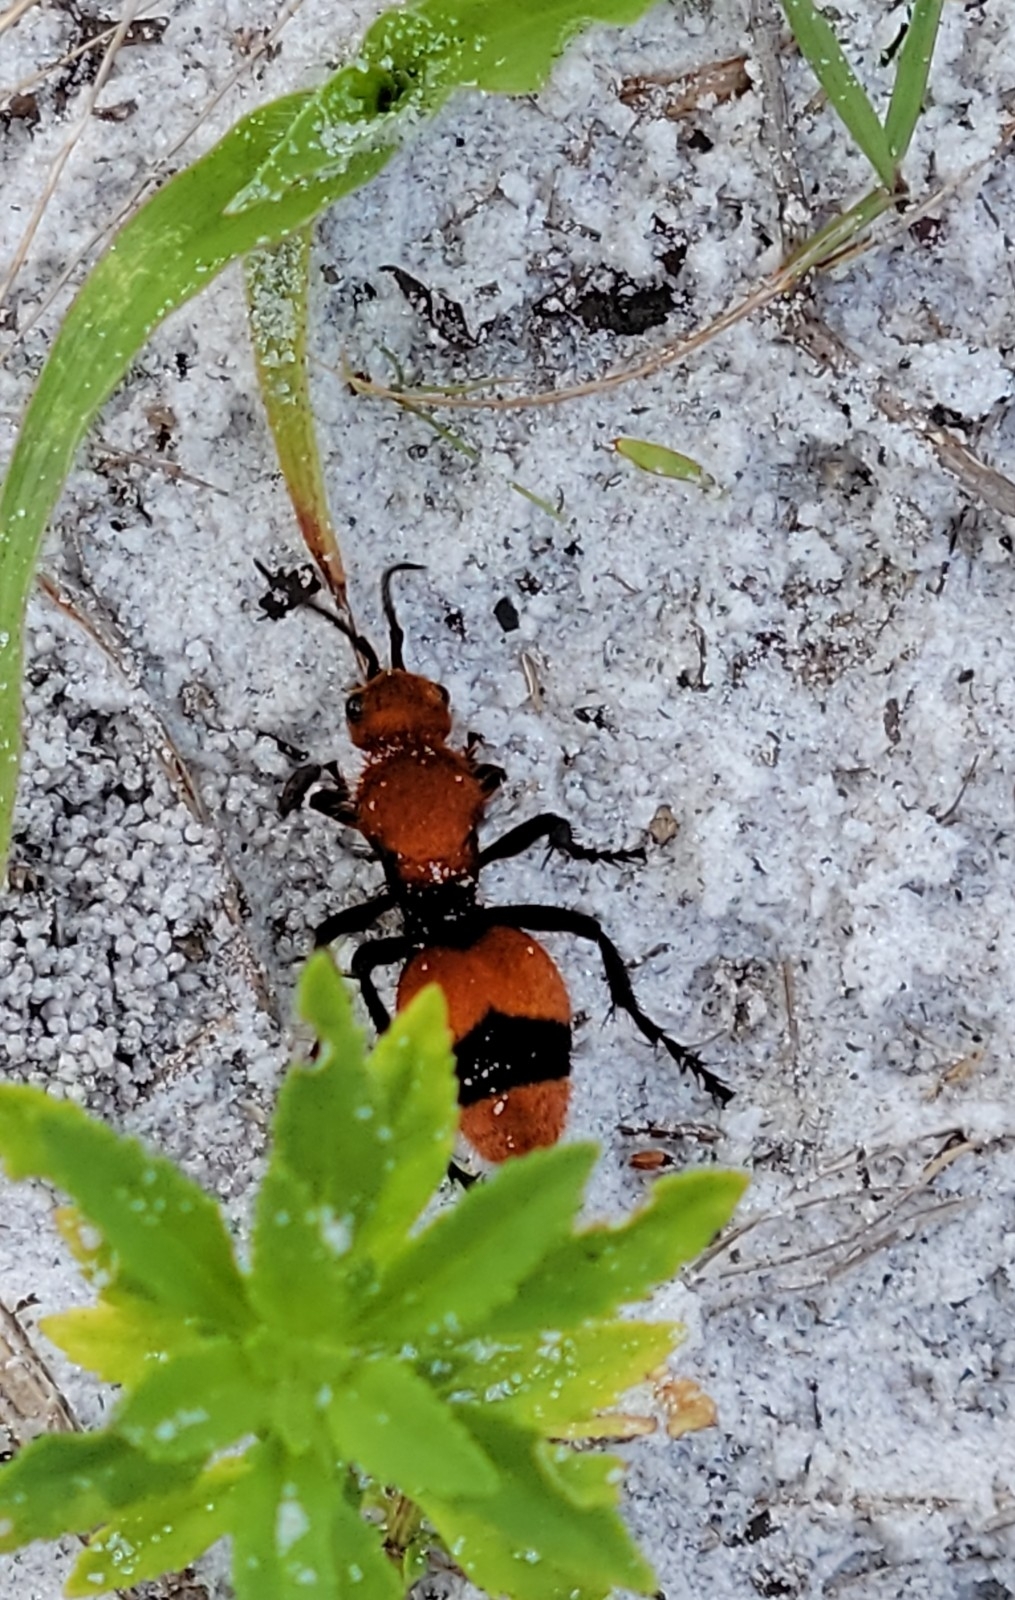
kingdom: Animalia
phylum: Arthropoda
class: Insecta
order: Hymenoptera
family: Mutillidae
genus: Dasymutilla
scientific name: Dasymutilla occidentalis
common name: Common eastern velvet ant
